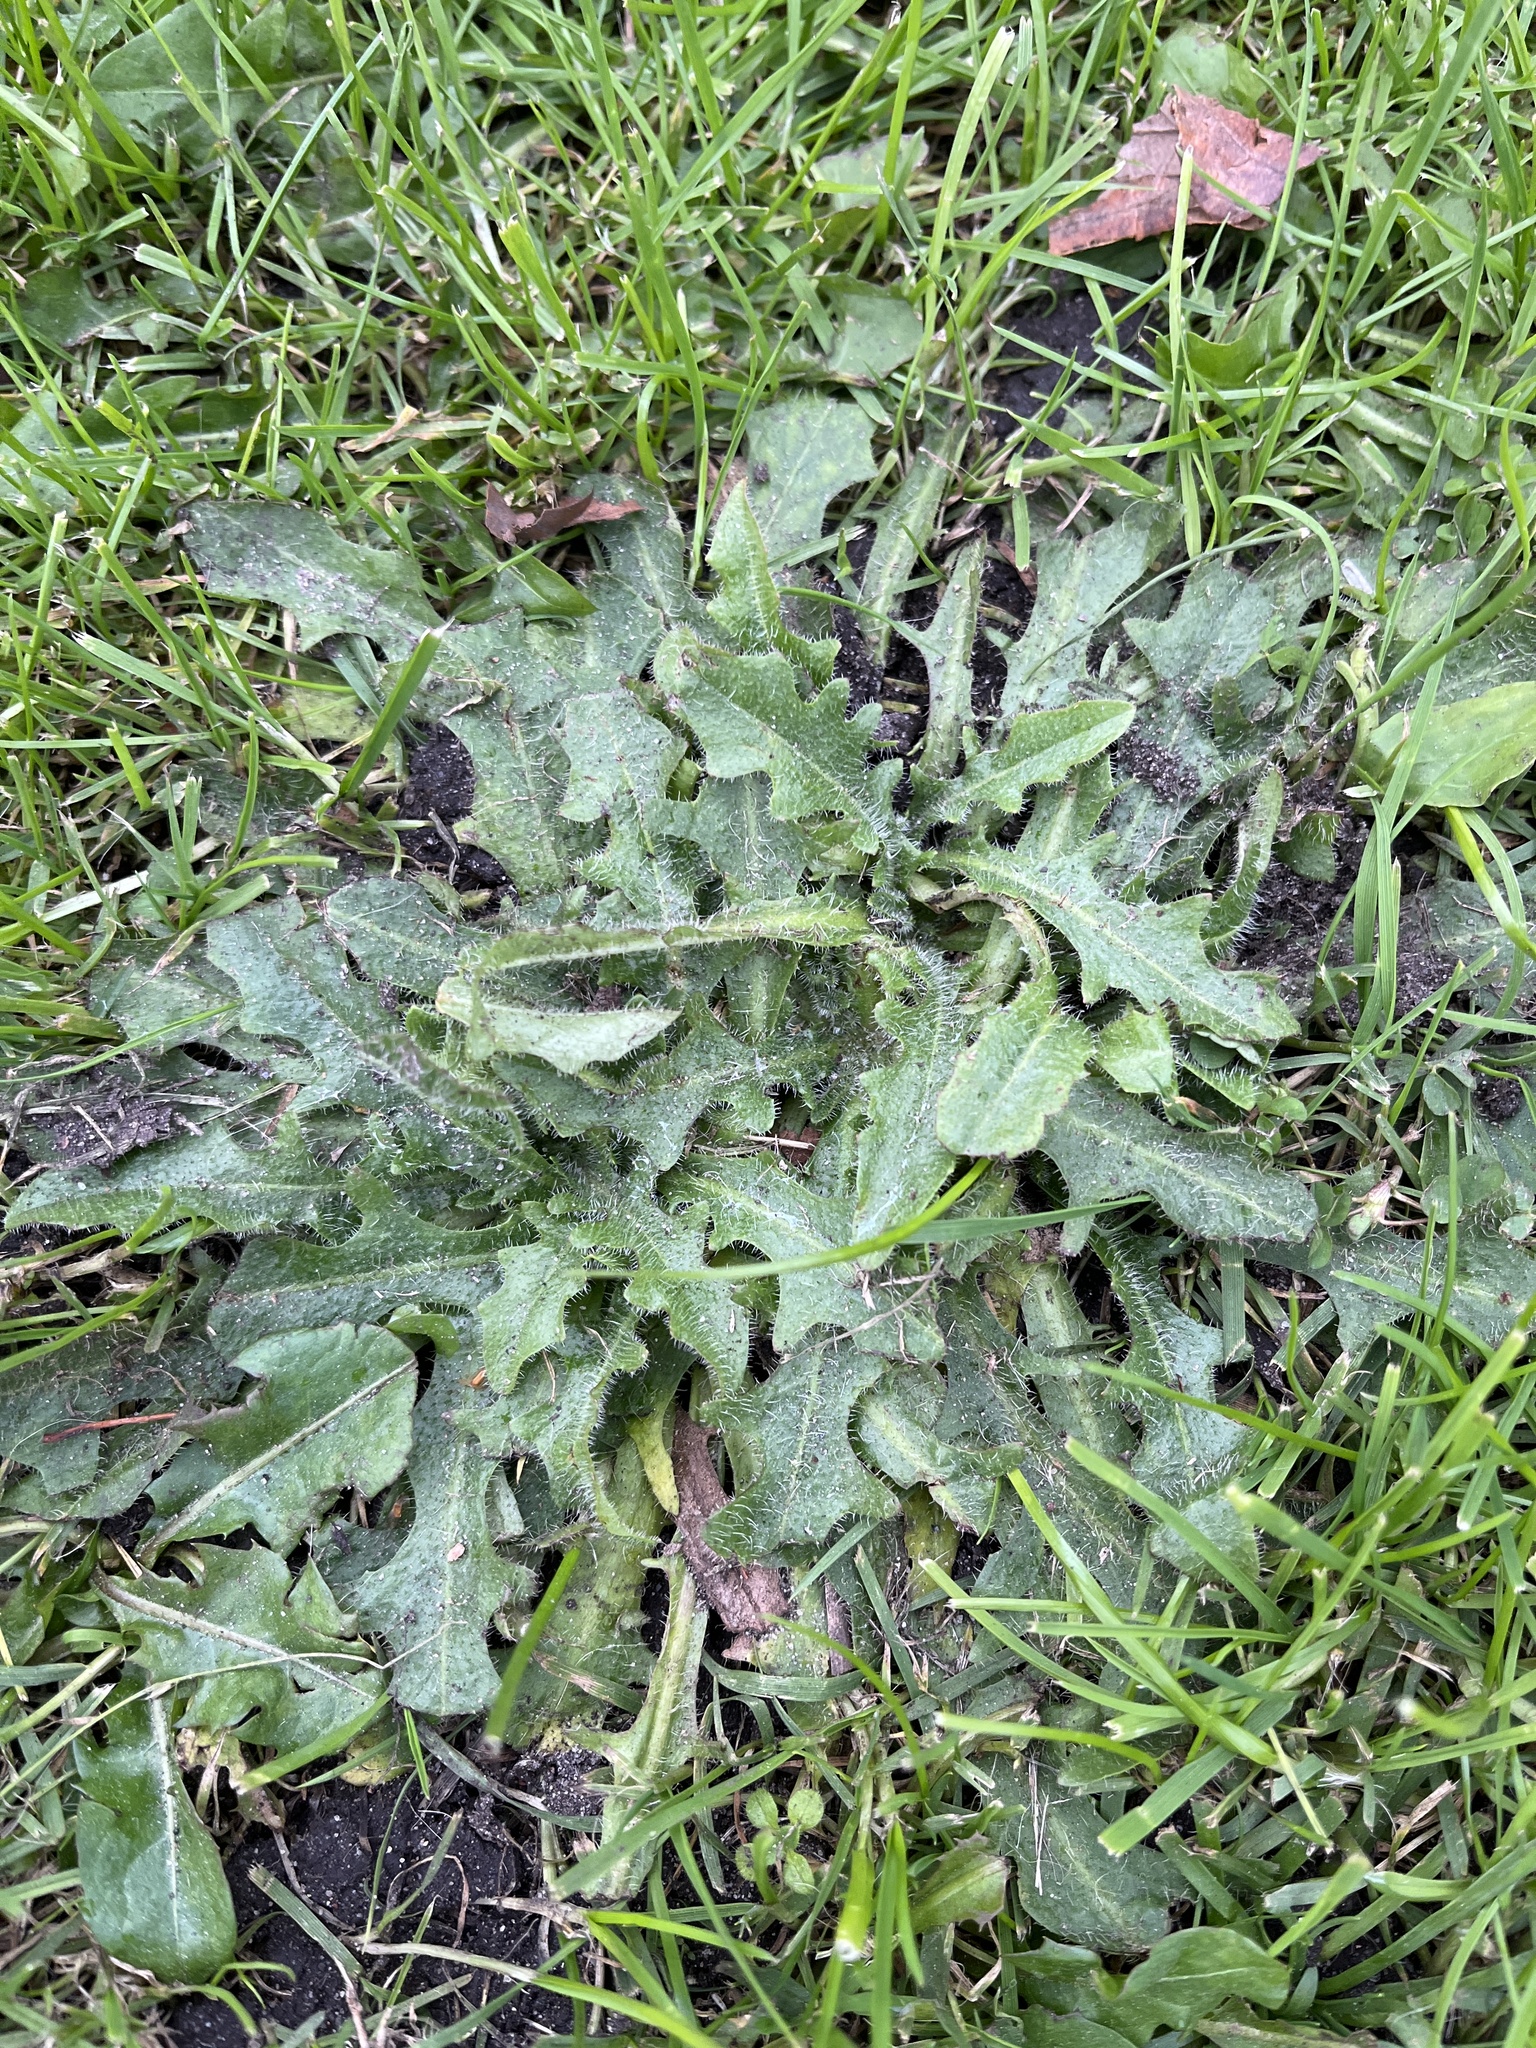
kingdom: Plantae
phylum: Tracheophyta
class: Magnoliopsida
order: Asterales
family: Asteraceae
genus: Hypochaeris
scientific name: Hypochaeris radicata
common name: Flatweed
